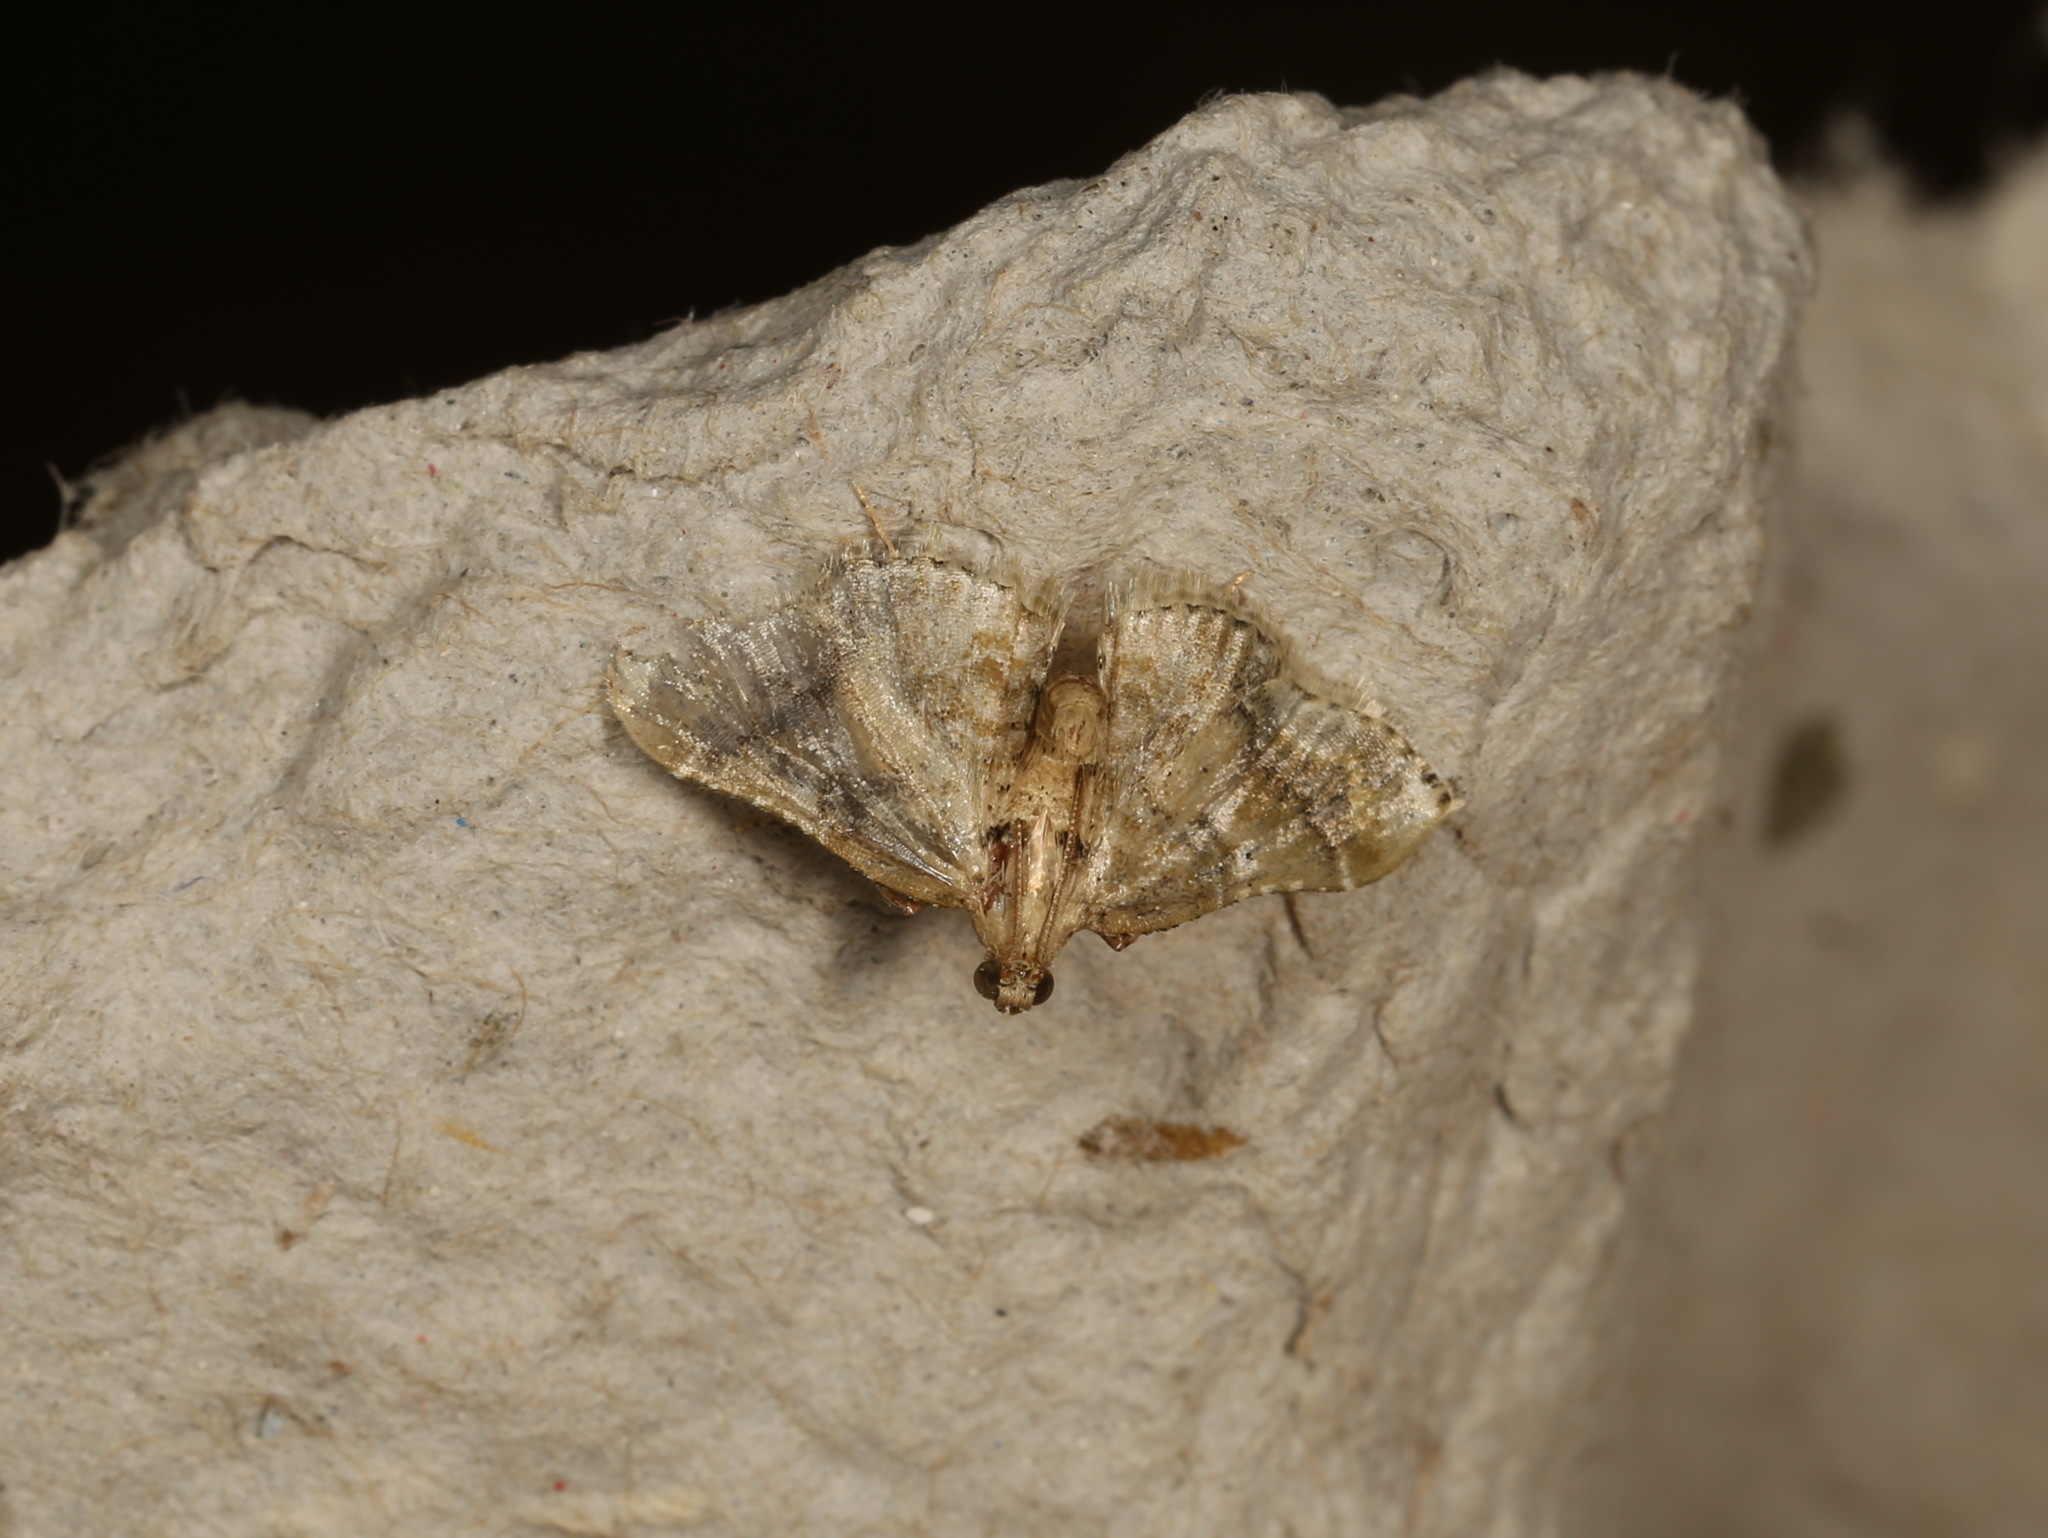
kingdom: Animalia
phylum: Arthropoda
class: Insecta
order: Lepidoptera
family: Pyralidae
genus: Scenedra
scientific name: Scenedra decoratalis
